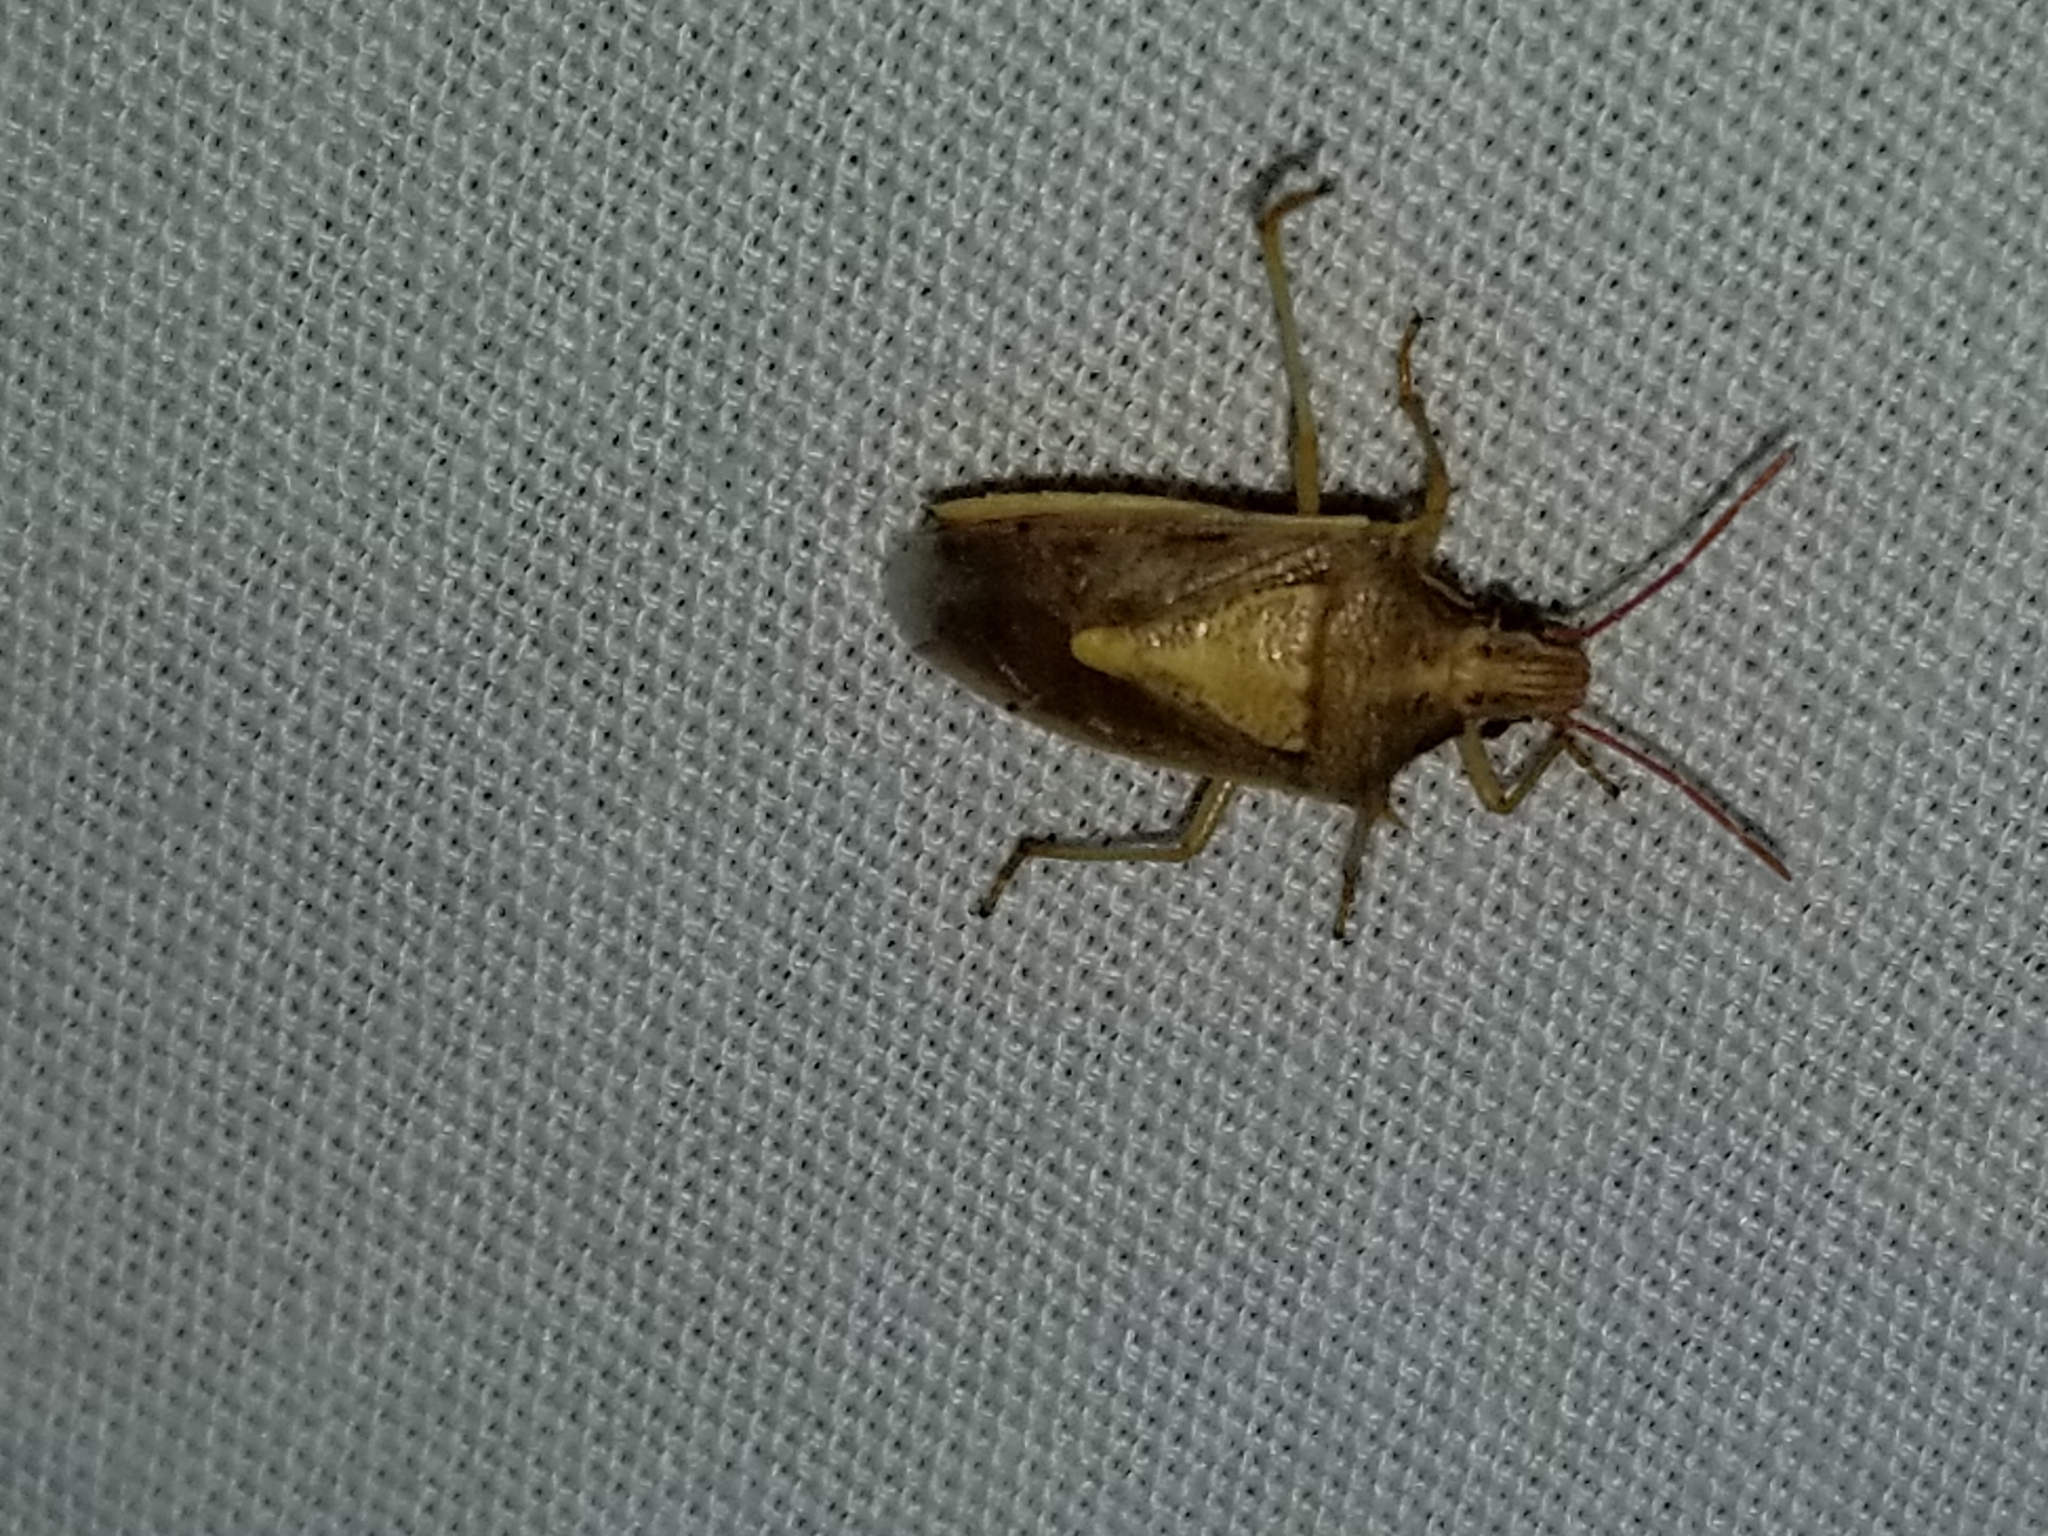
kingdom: Animalia
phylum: Arthropoda
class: Insecta
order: Hemiptera
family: Pentatomidae
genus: Oebalus
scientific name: Oebalus pugnax
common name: Rice stink bug
